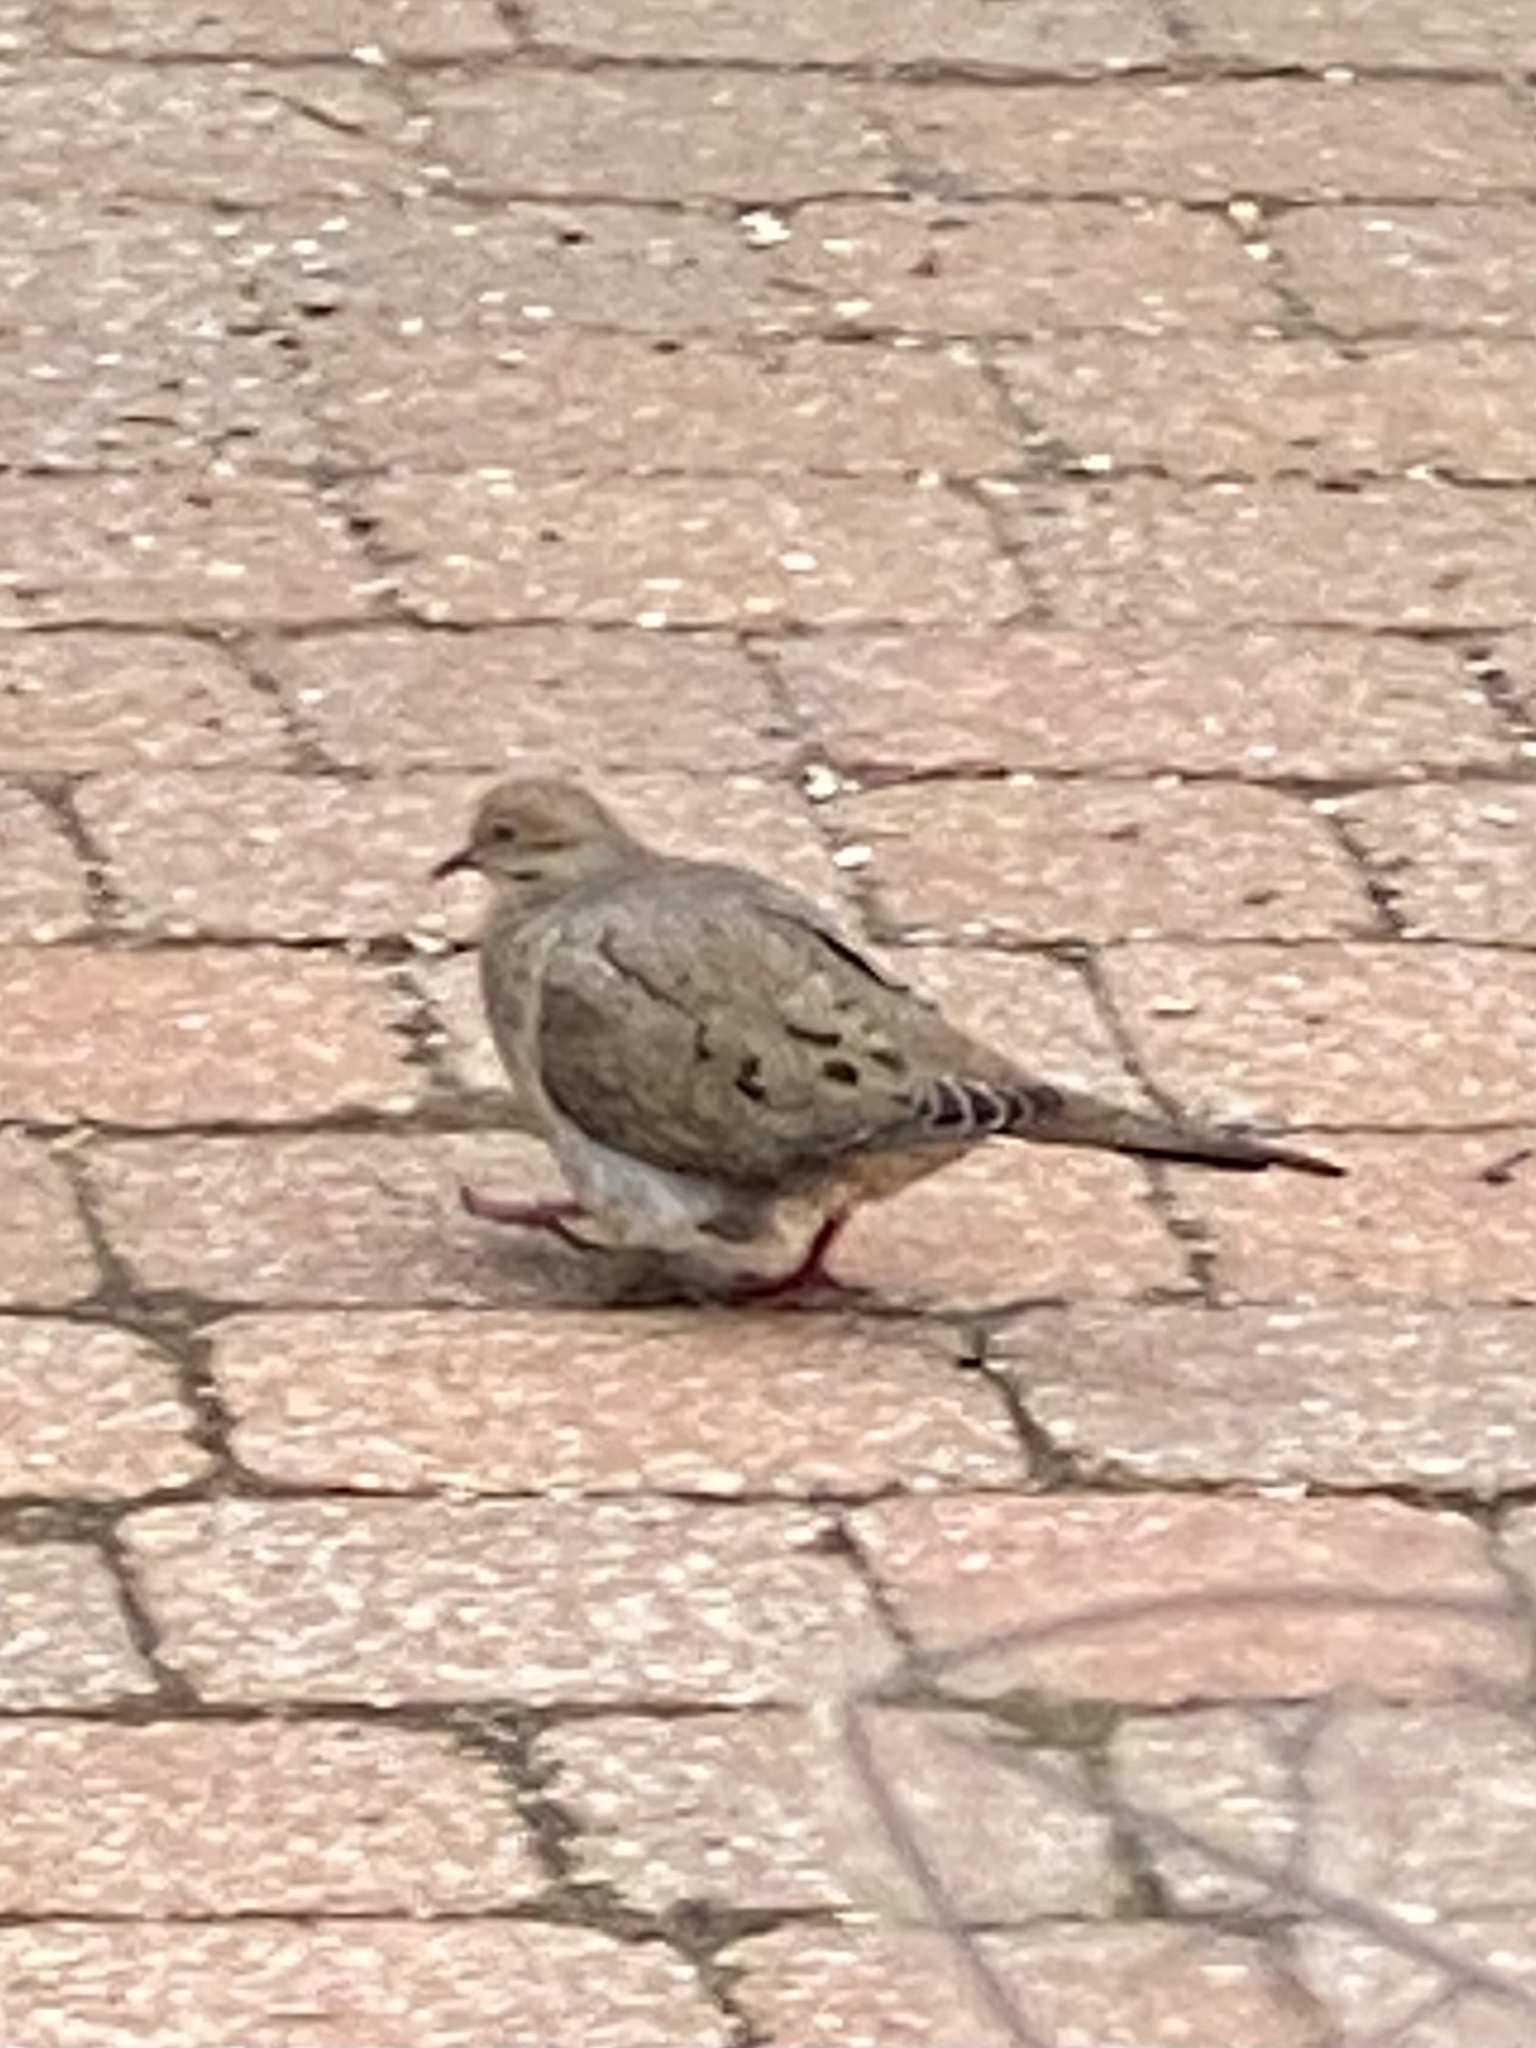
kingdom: Animalia
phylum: Chordata
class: Aves
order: Columbiformes
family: Columbidae
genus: Zenaida
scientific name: Zenaida macroura
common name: Mourning dove
